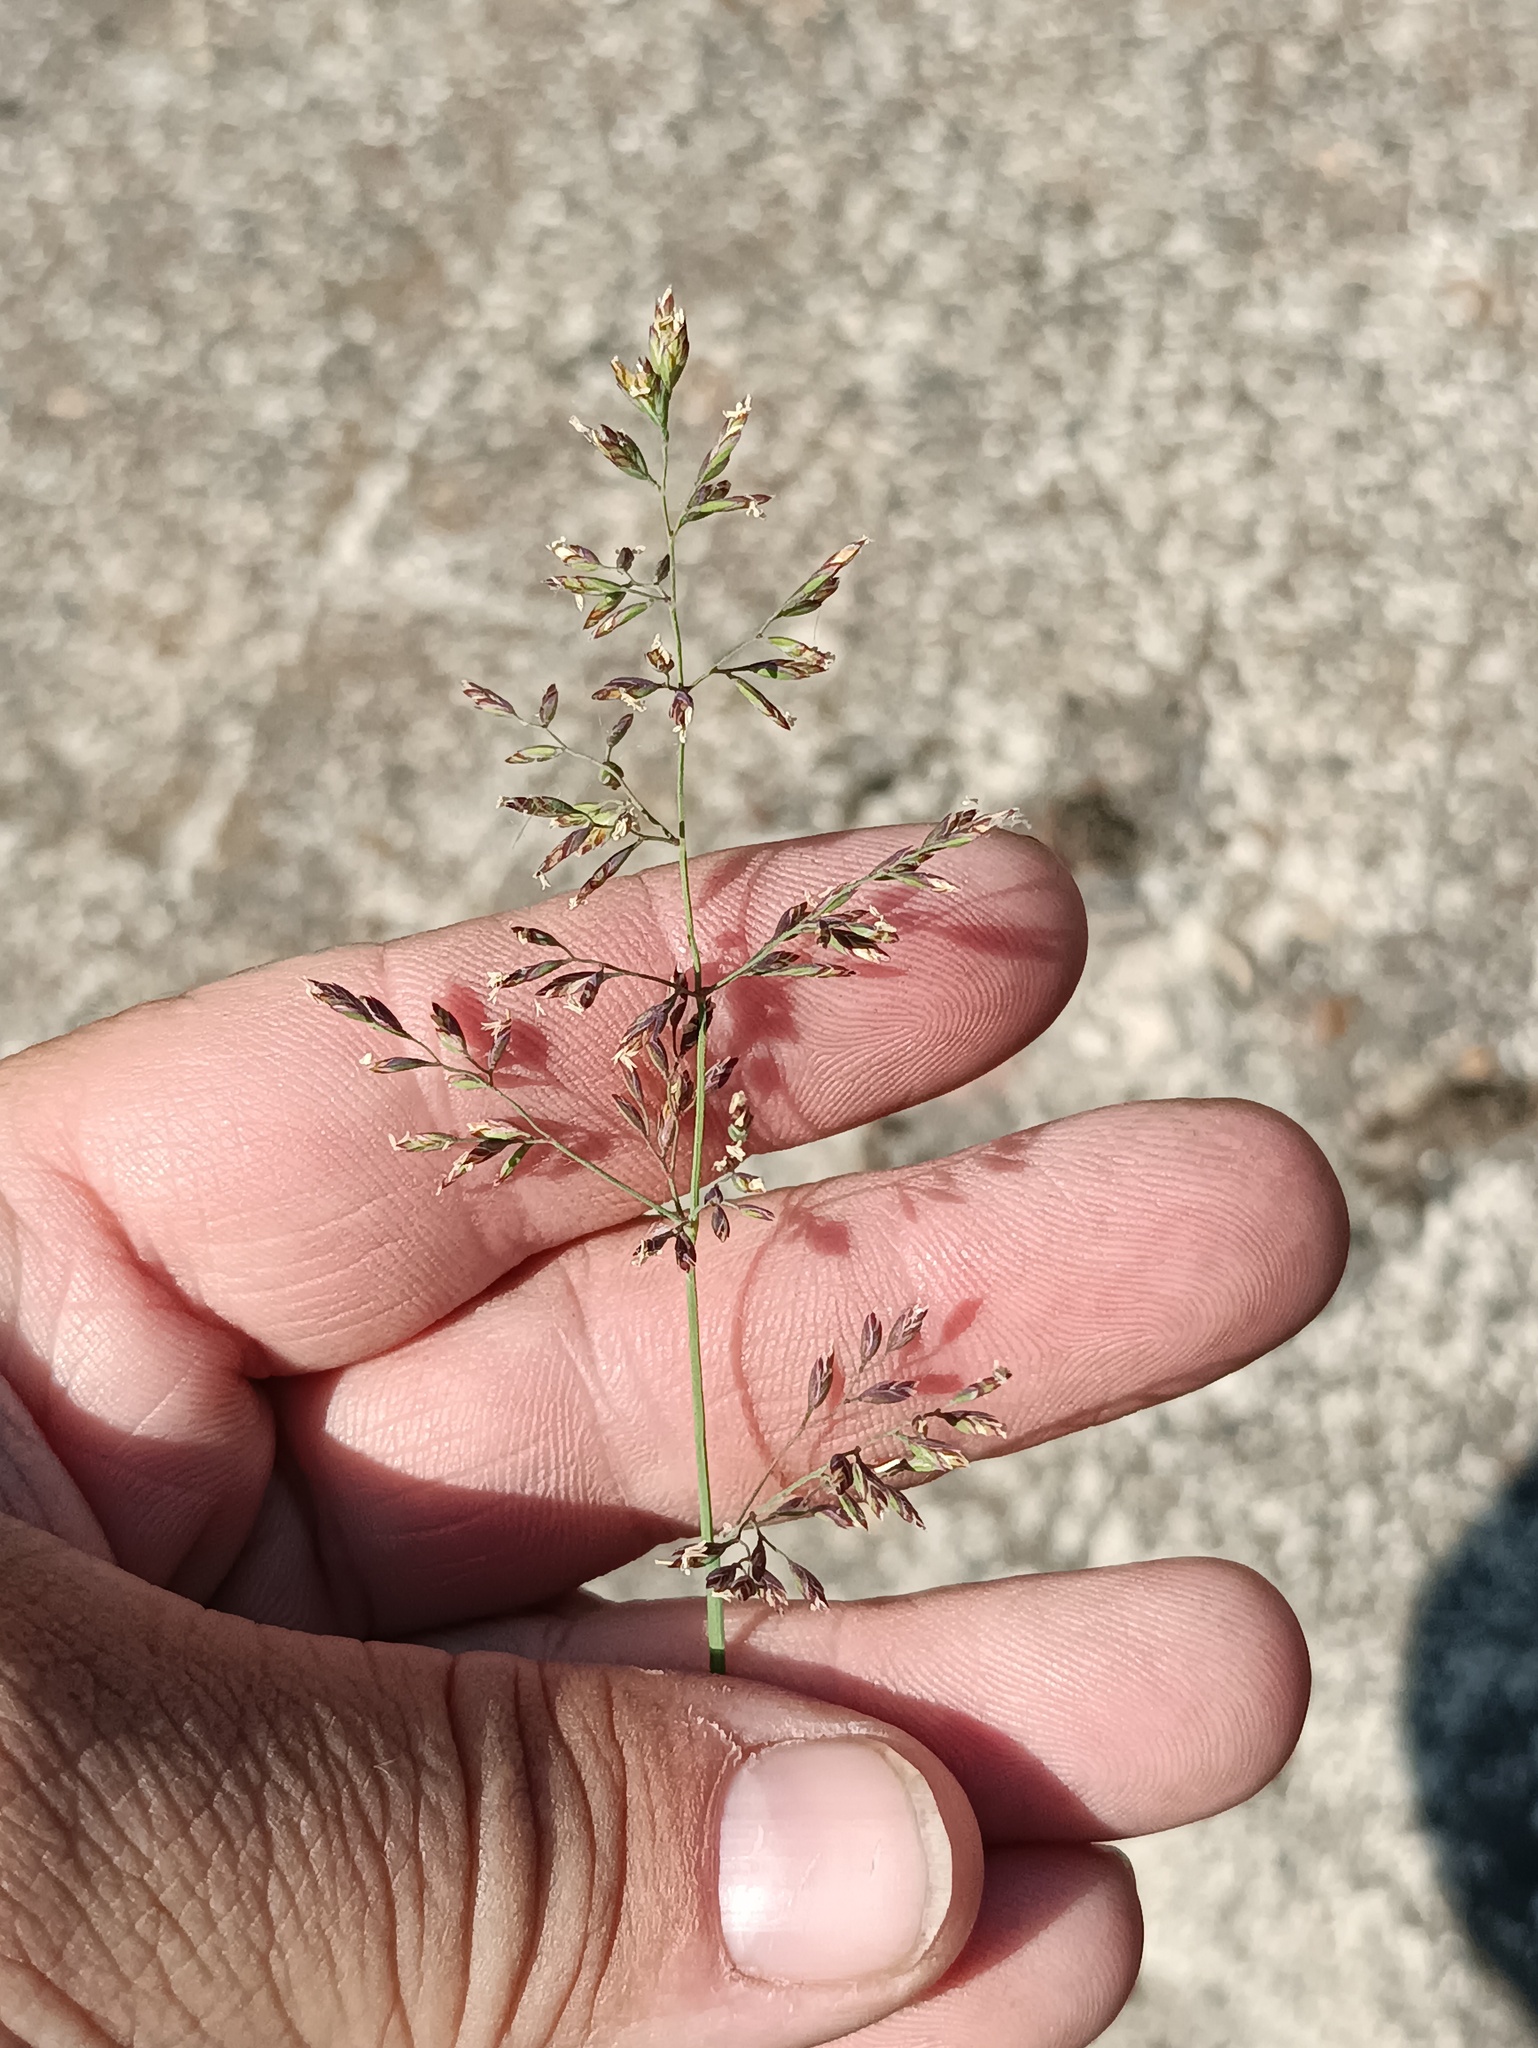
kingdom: Plantae
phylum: Tracheophyta
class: Liliopsida
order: Poales
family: Poaceae
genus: Poa
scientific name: Poa compressa
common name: Canada bluegrass
